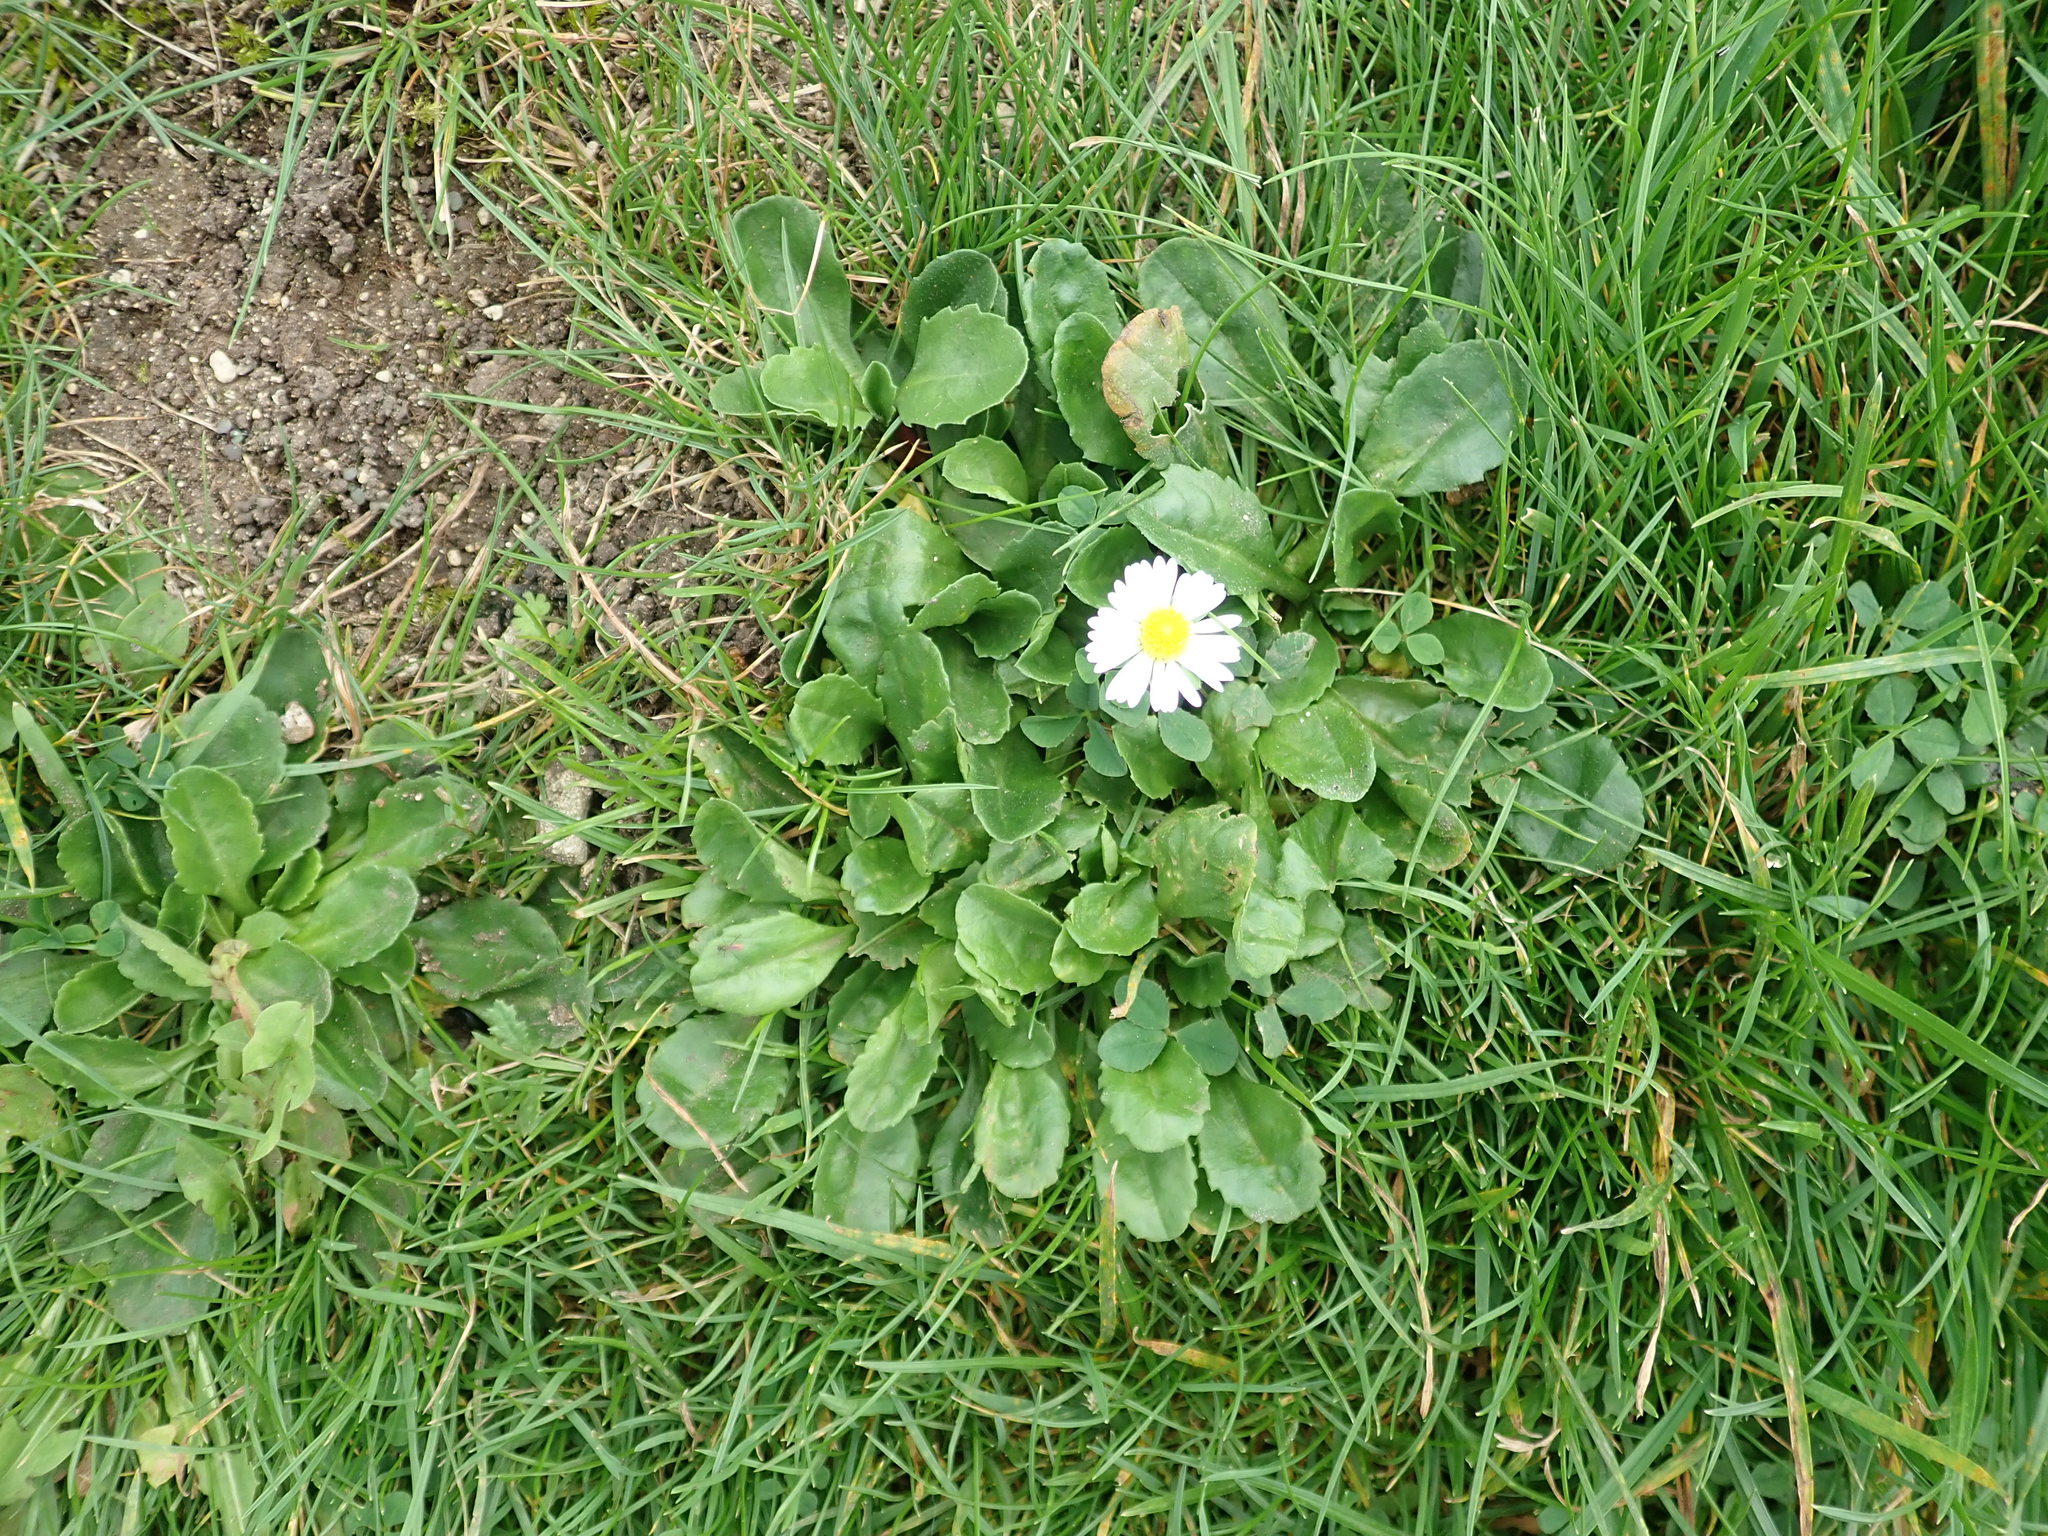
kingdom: Plantae
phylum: Tracheophyta
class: Magnoliopsida
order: Asterales
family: Asteraceae
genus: Bellis
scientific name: Bellis perennis
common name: Lawndaisy
